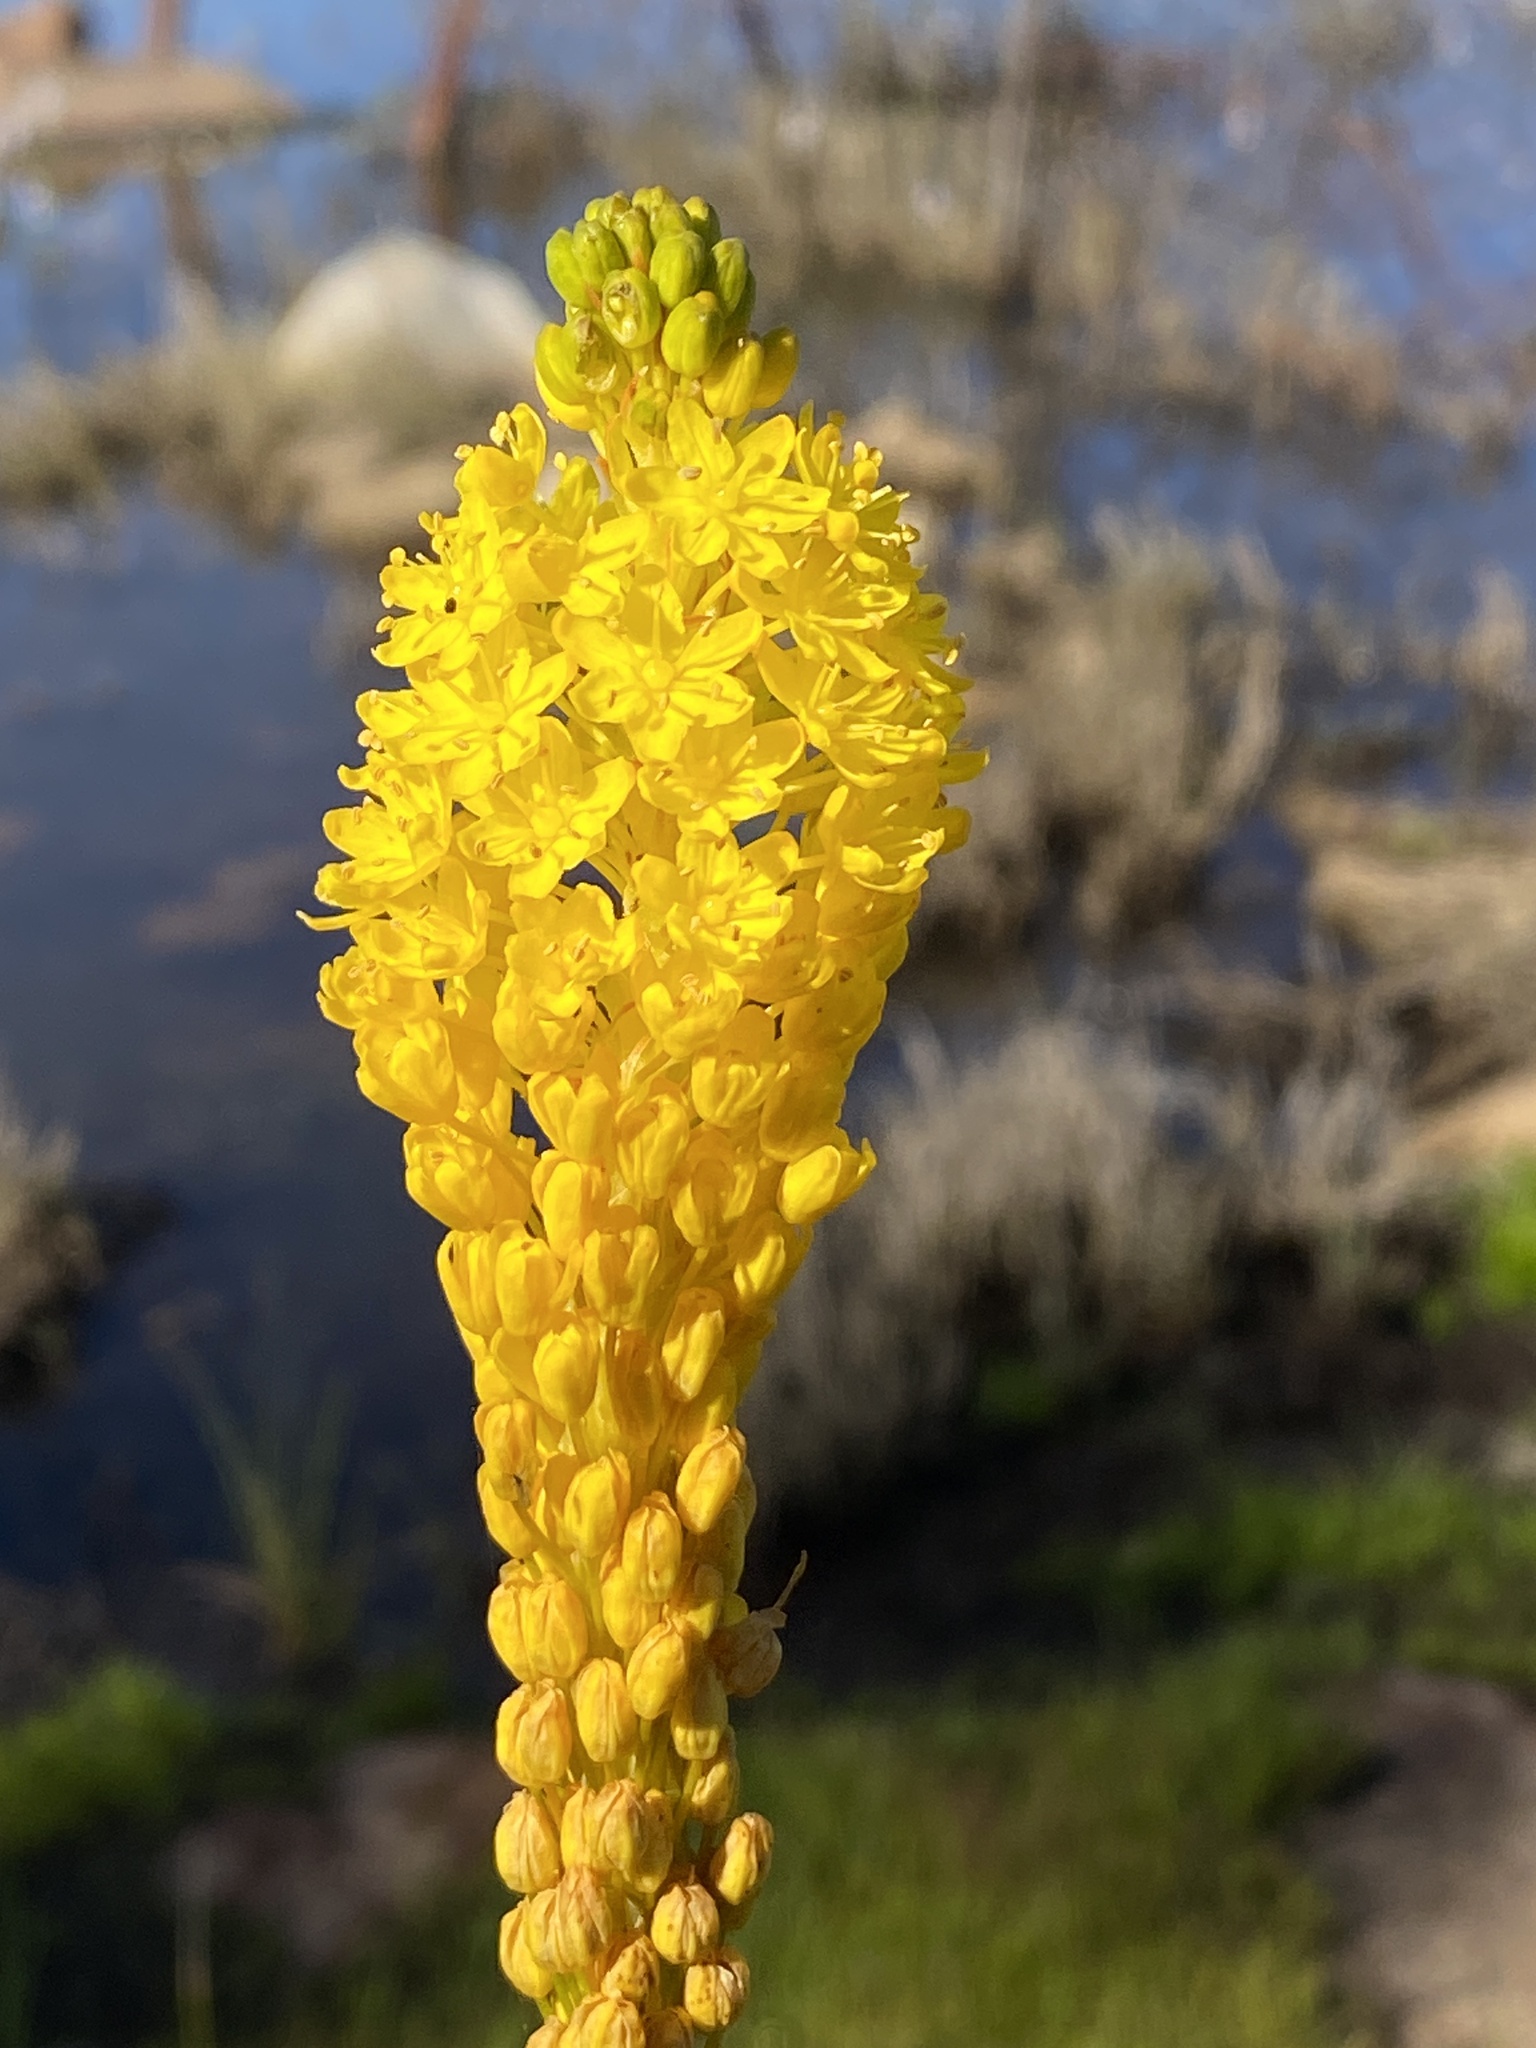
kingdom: Plantae
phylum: Tracheophyta
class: Liliopsida
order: Asparagales
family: Asphodelaceae
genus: Bulbinella
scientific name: Bulbinella nutans
